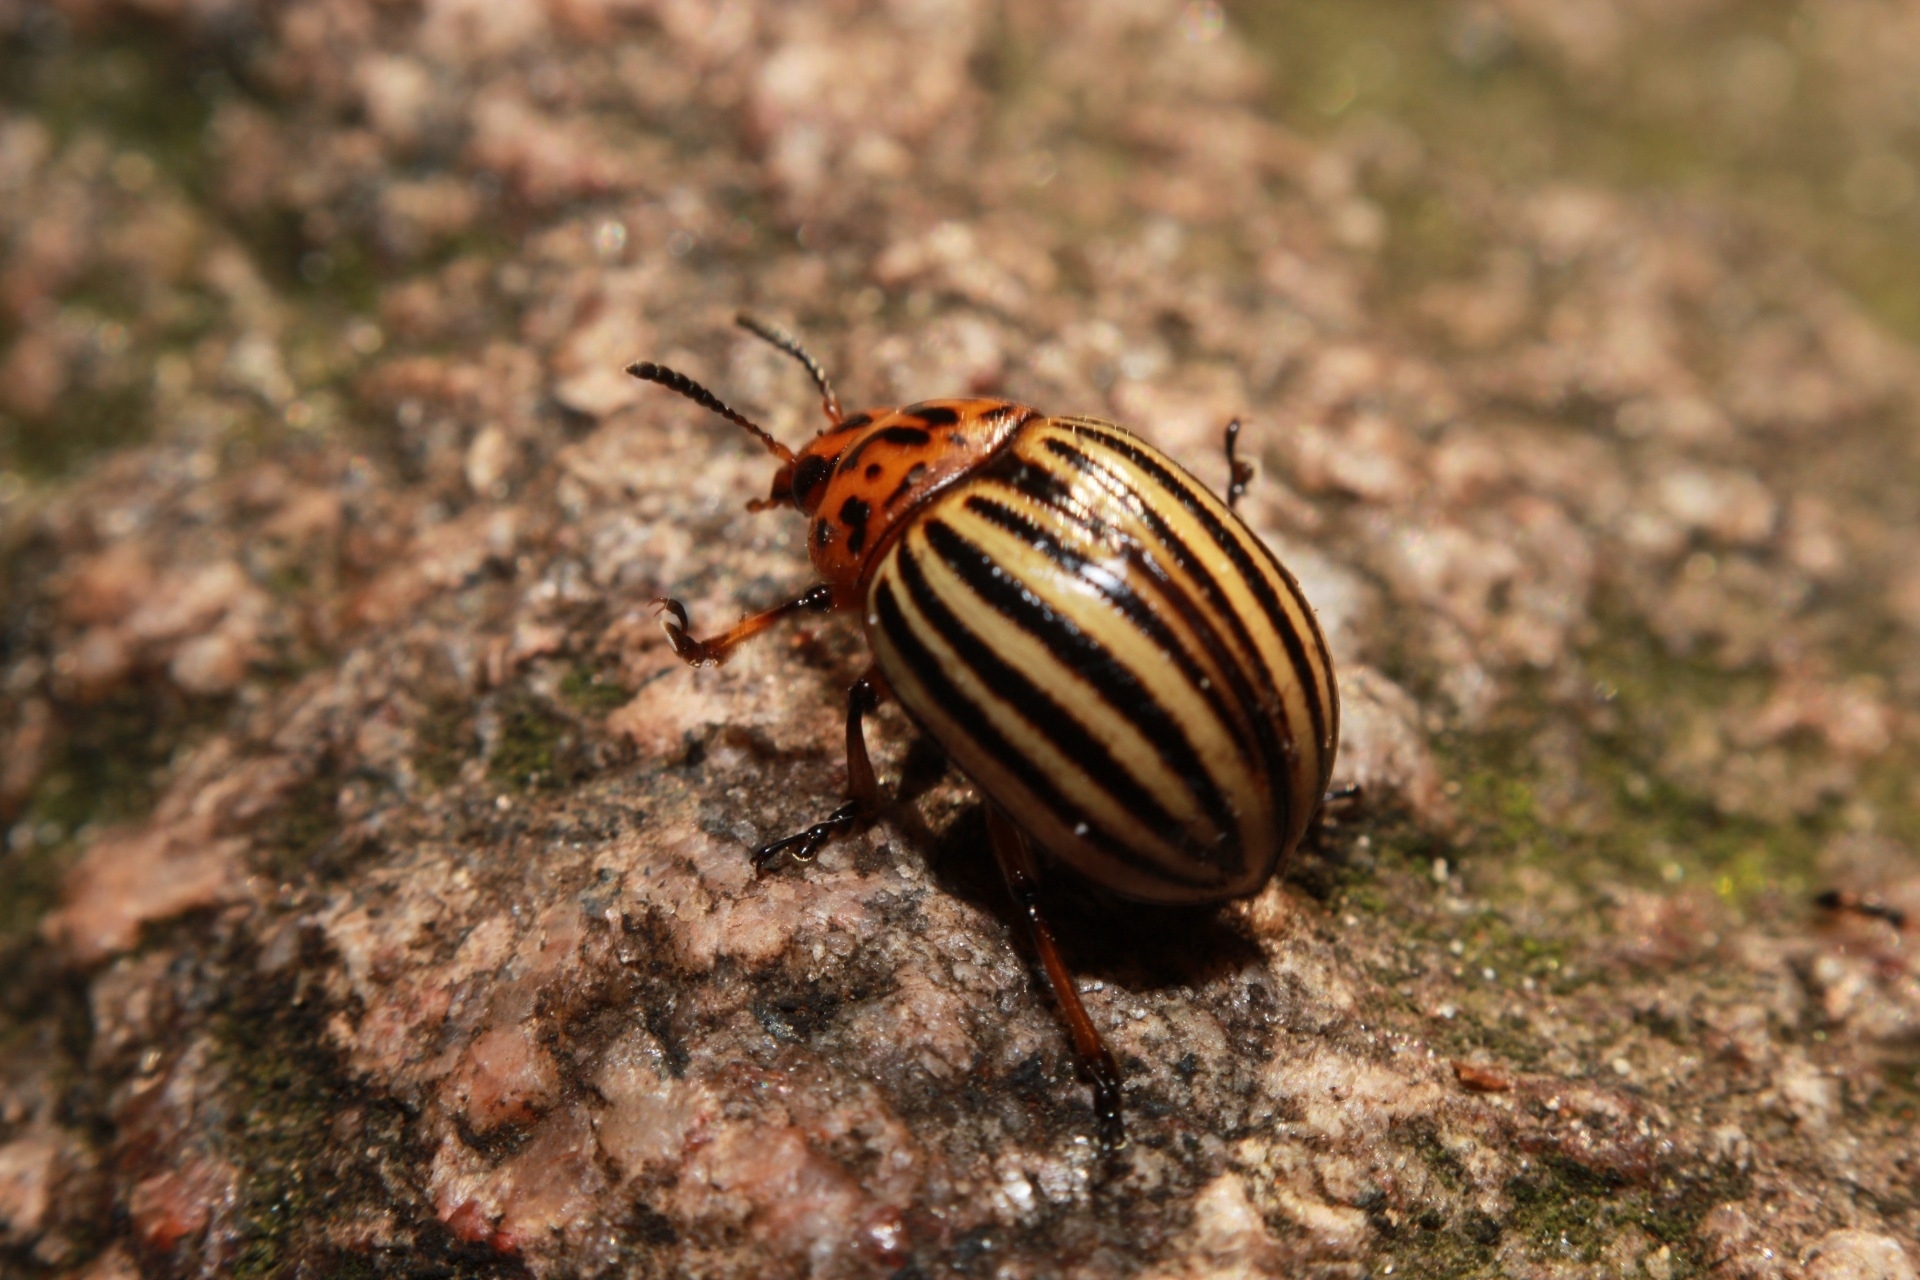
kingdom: Animalia
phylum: Arthropoda
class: Insecta
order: Coleoptera
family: Chrysomelidae
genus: Leptinotarsa
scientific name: Leptinotarsa decemlineata
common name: Colorado potato beetle
